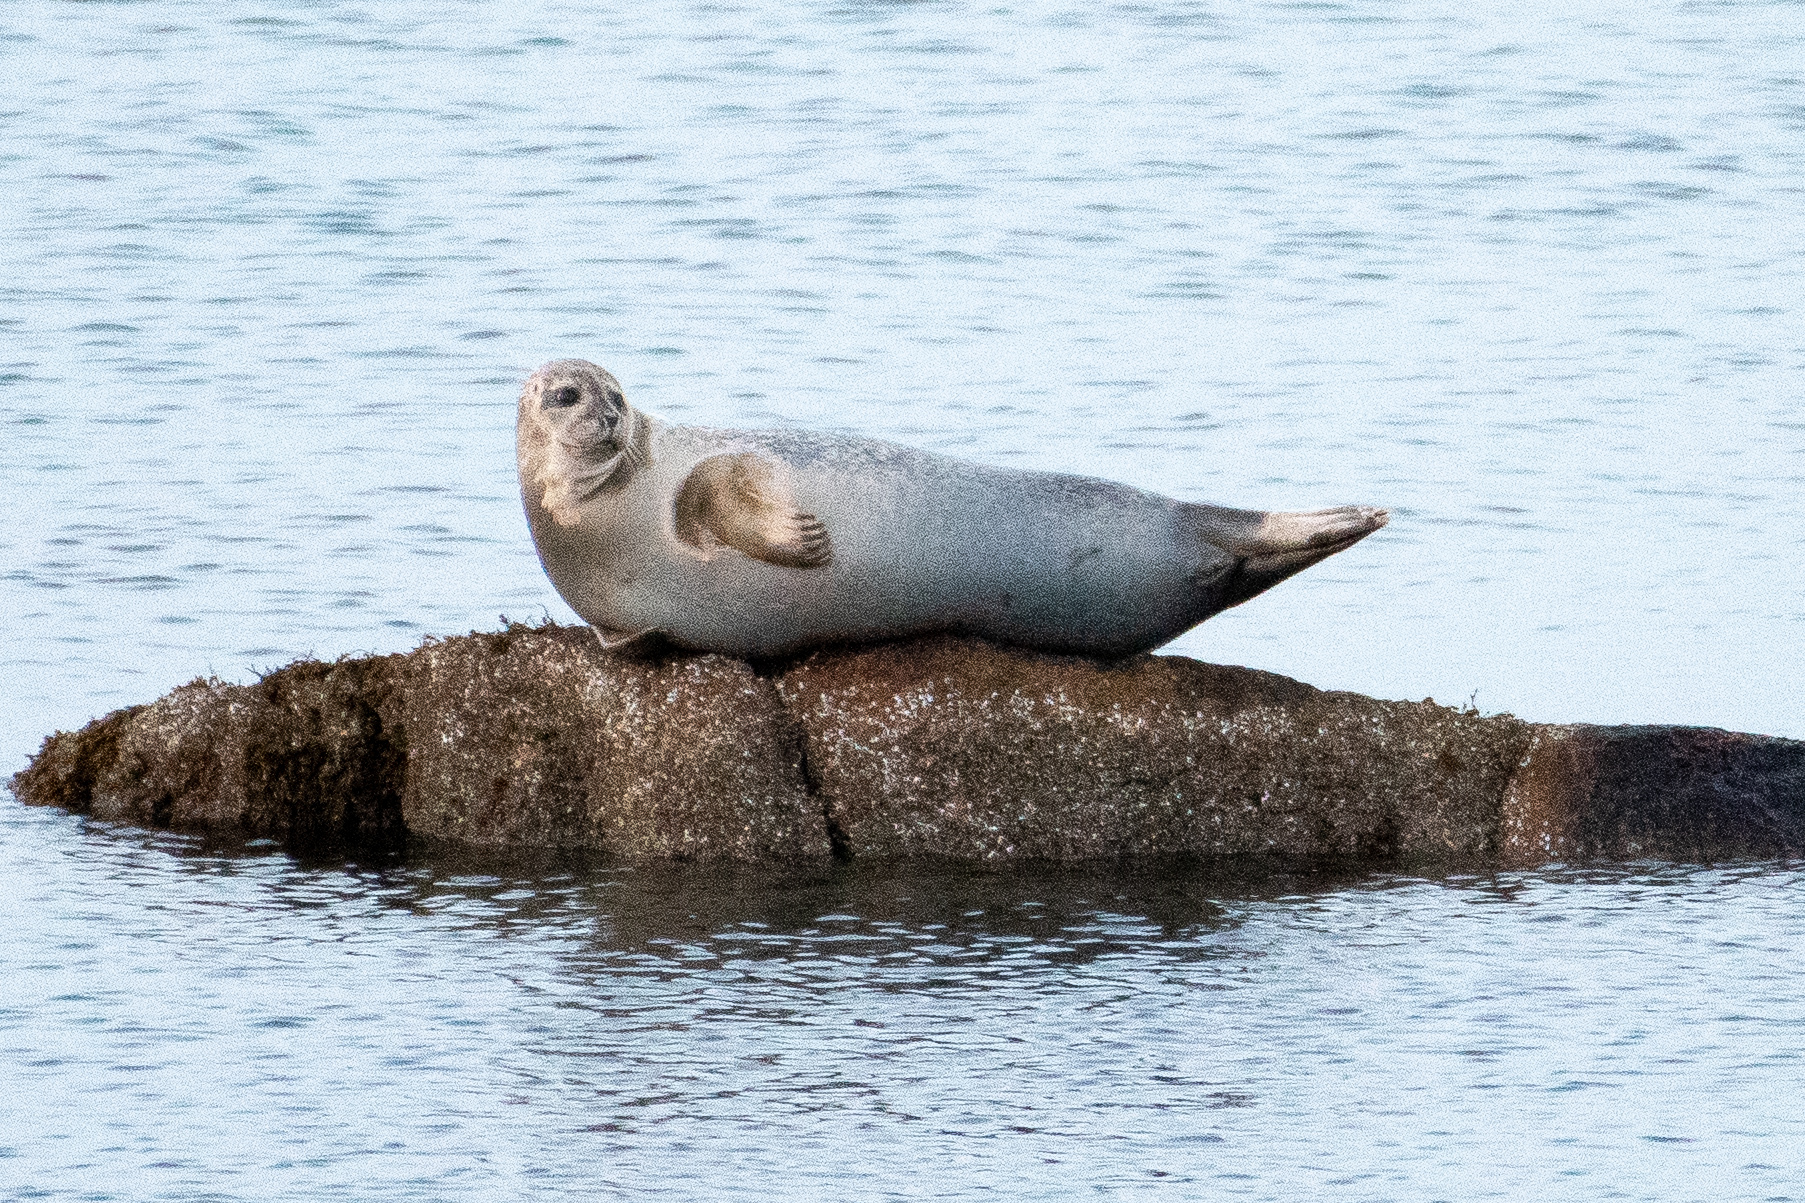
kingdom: Animalia
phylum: Chordata
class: Mammalia
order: Carnivora
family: Phocidae
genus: Phoca
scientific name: Phoca vitulina
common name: Harbor seal
